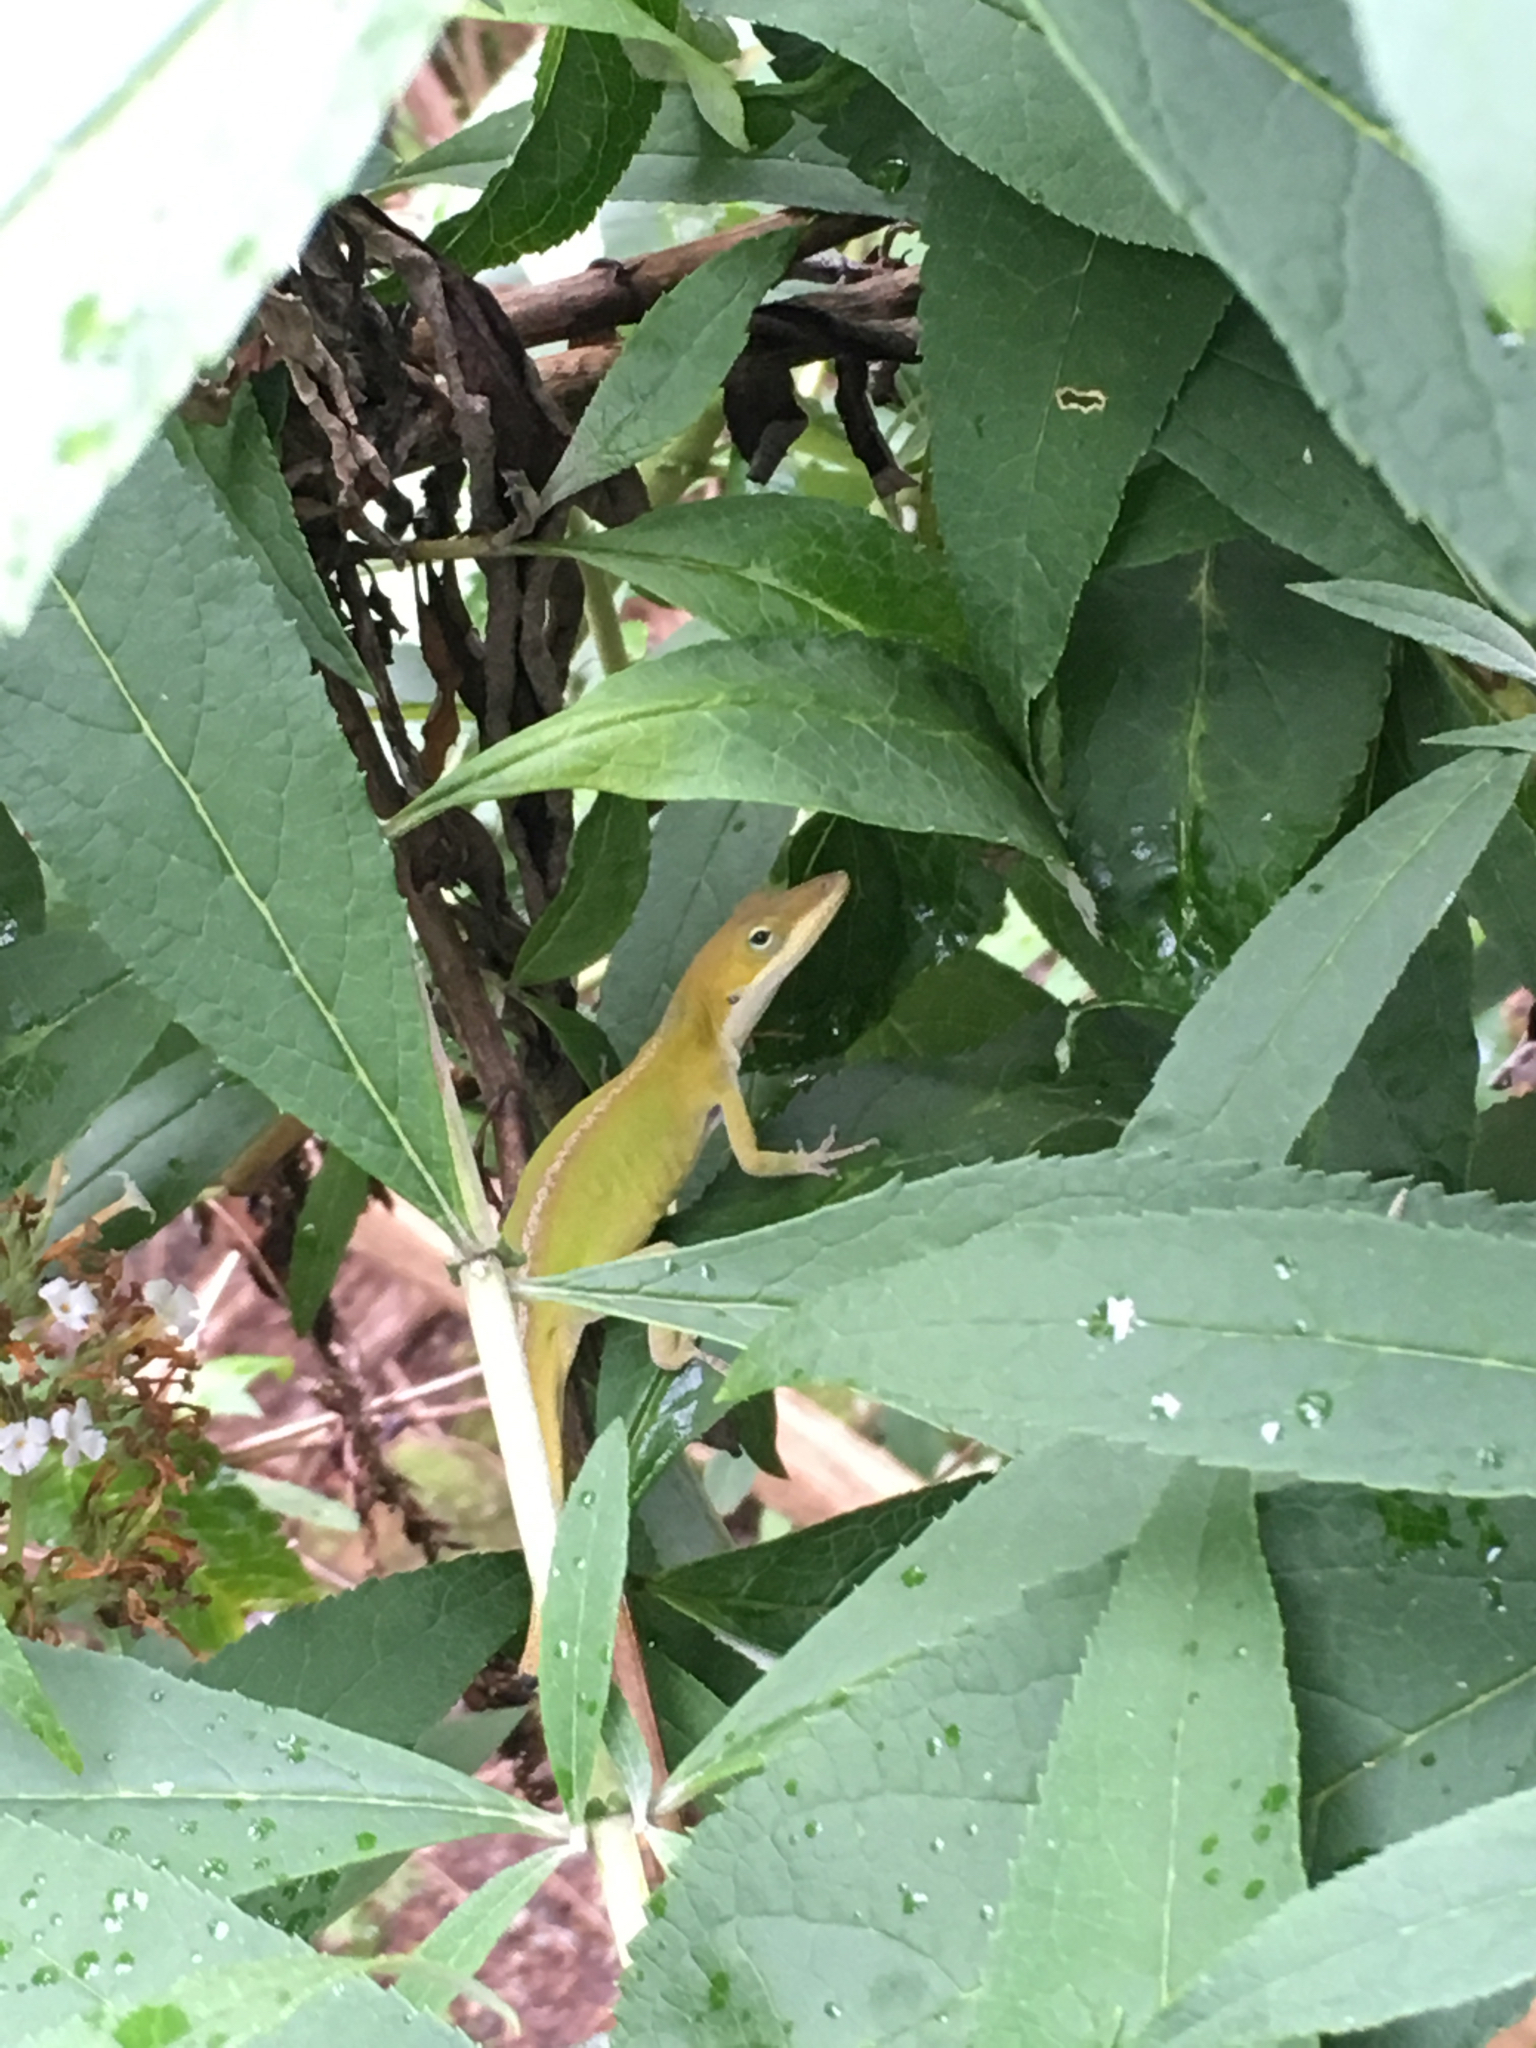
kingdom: Animalia
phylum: Chordata
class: Squamata
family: Dactyloidae
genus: Anolis
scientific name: Anolis carolinensis
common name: Green anole
